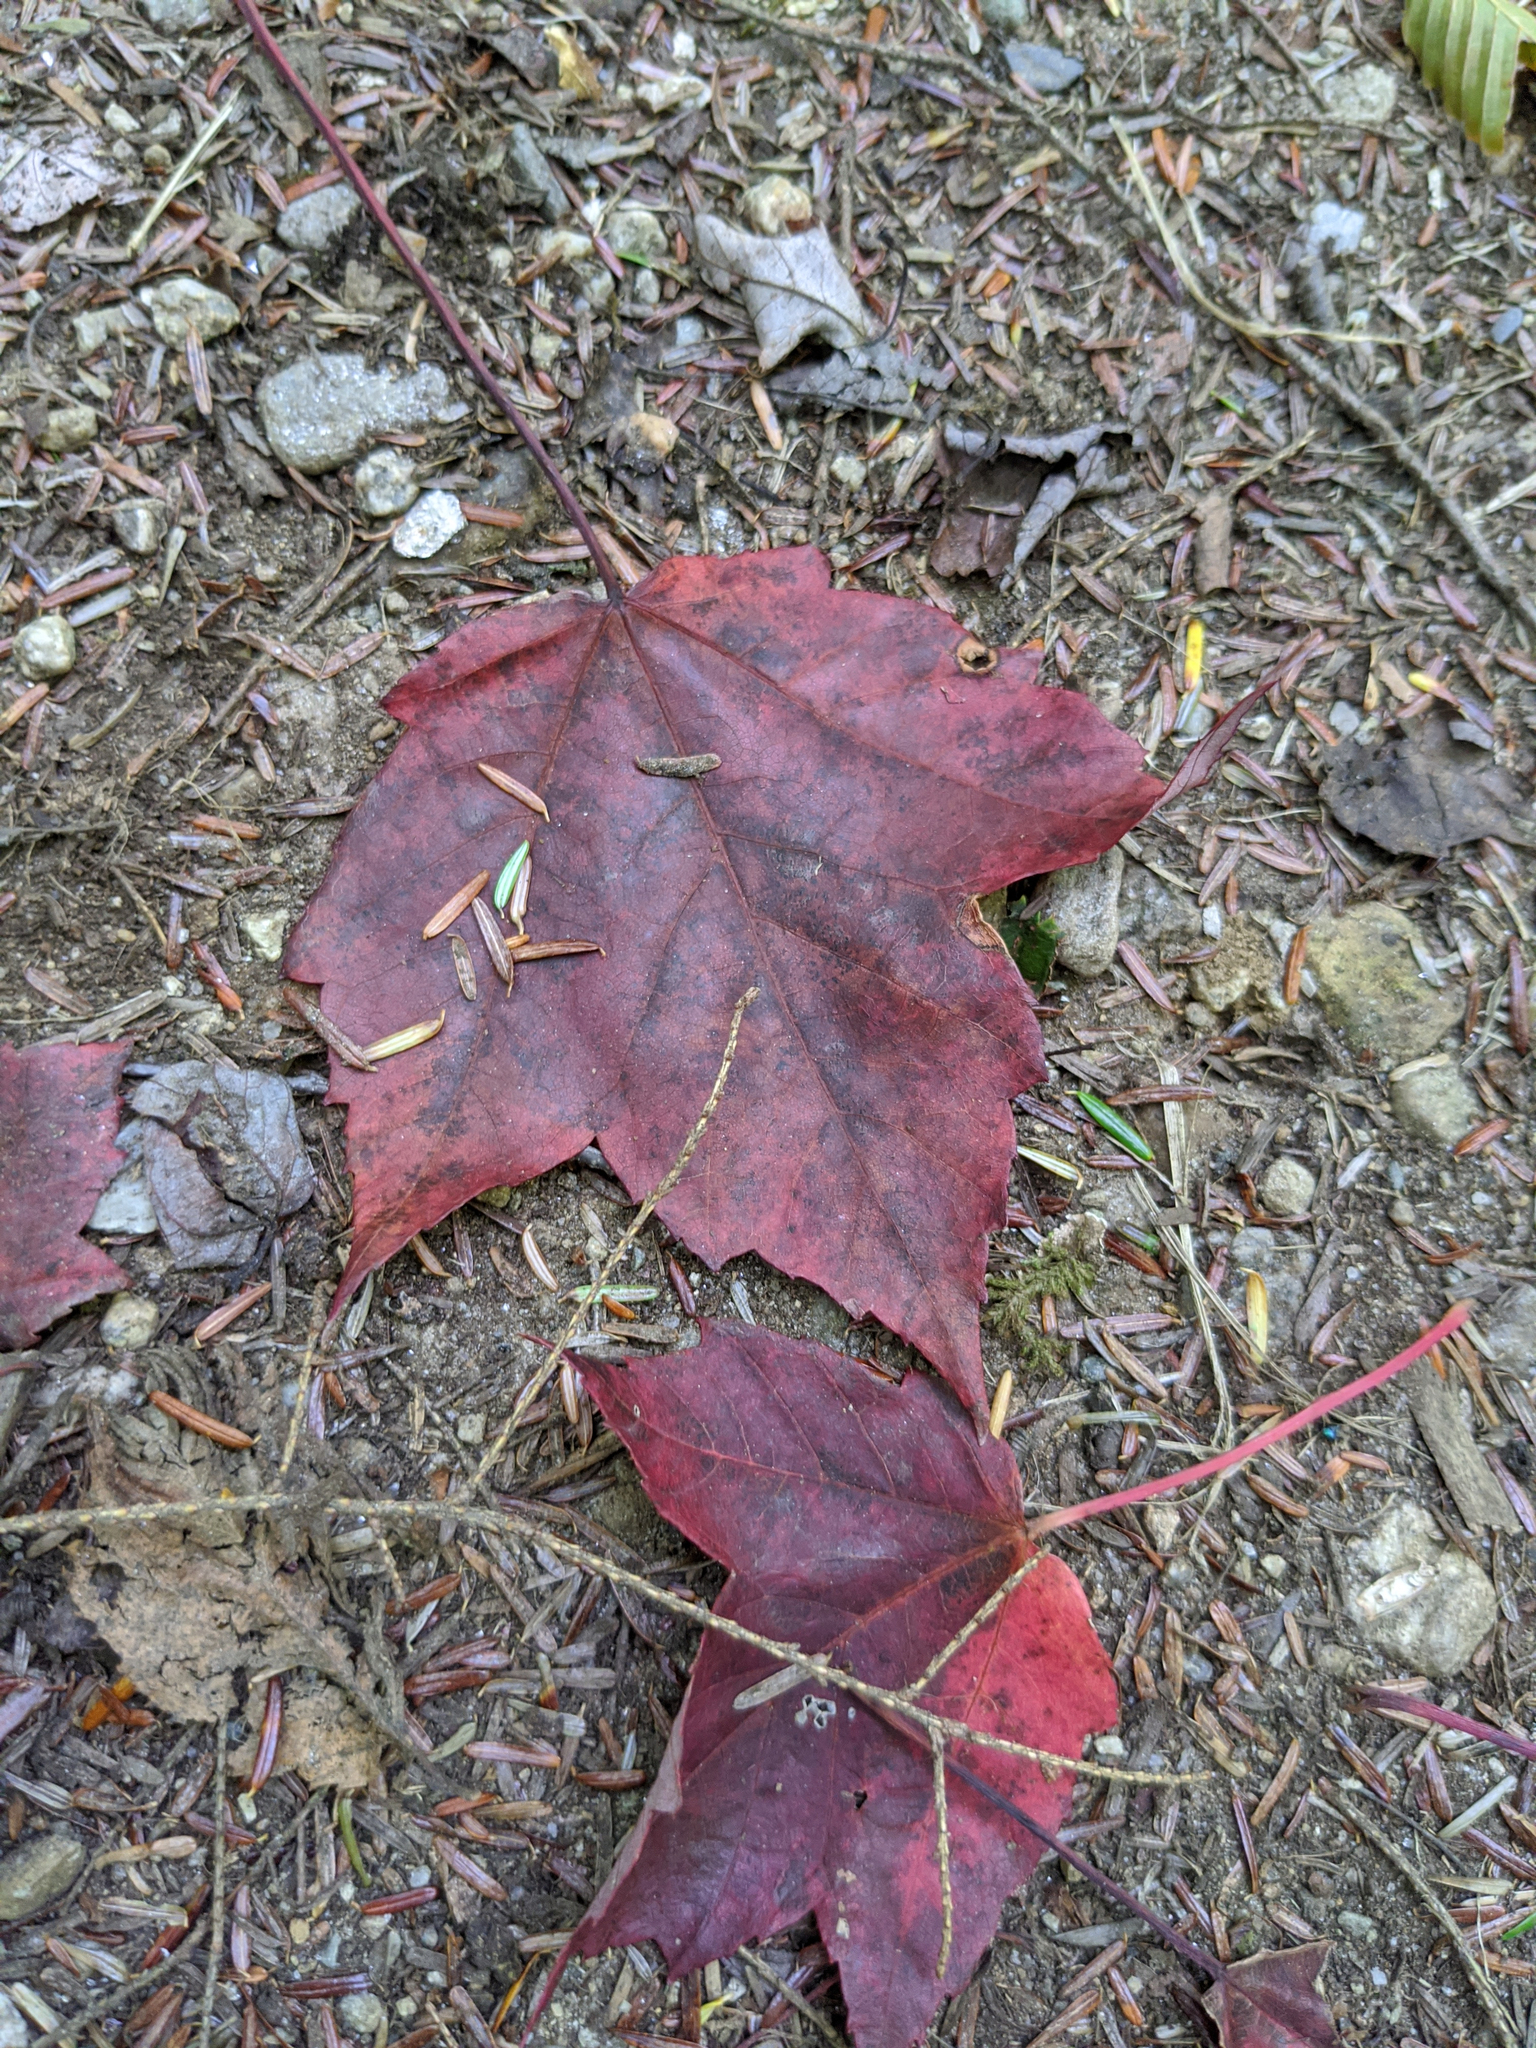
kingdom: Plantae
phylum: Tracheophyta
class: Magnoliopsida
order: Sapindales
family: Sapindaceae
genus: Acer
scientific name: Acer rubrum
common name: Red maple
